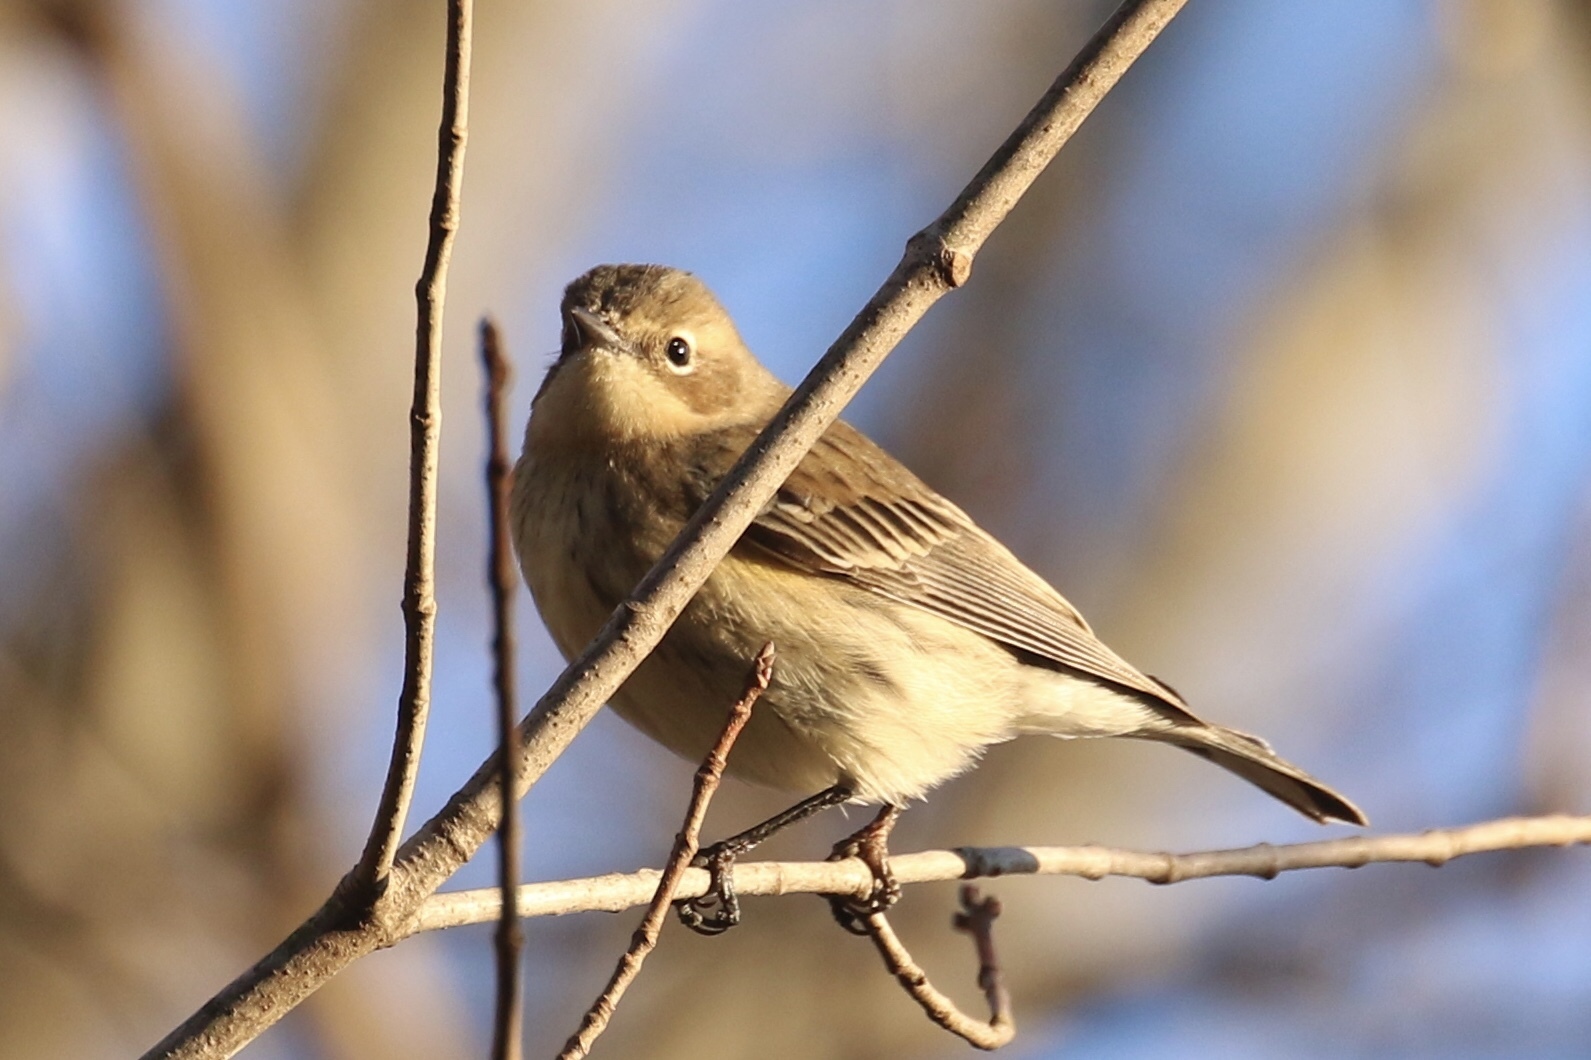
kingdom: Animalia
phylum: Chordata
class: Aves
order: Passeriformes
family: Parulidae
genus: Setophaga
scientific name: Setophaga coronata
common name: Myrtle warbler
